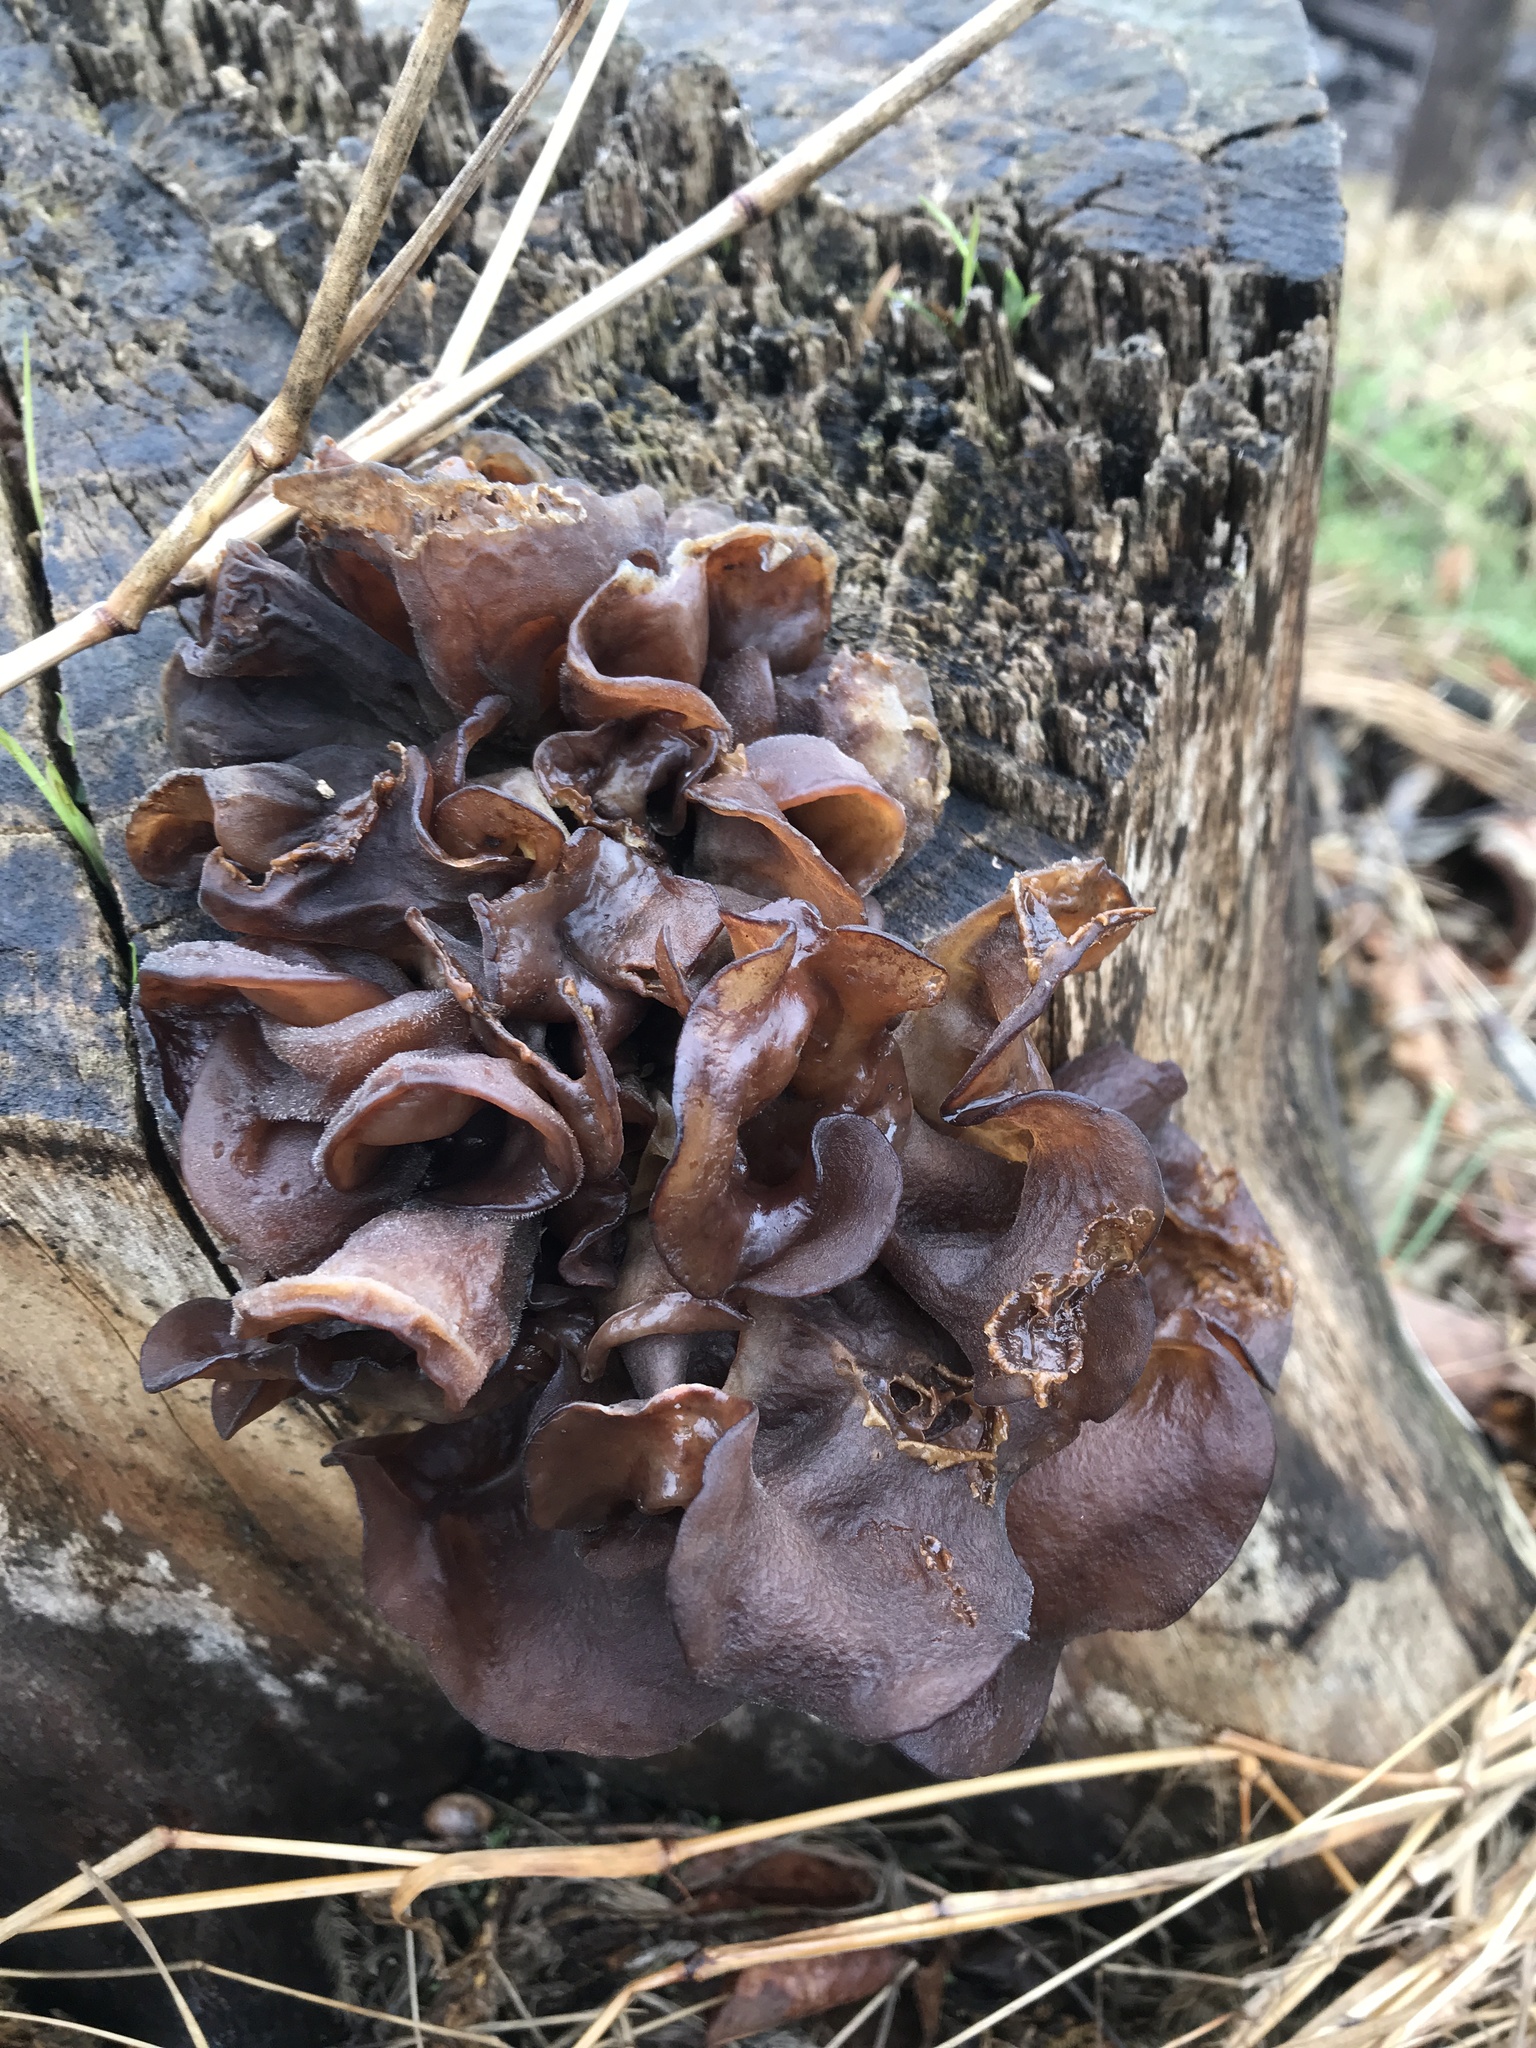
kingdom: Fungi
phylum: Basidiomycota
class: Tremellomycetes
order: Tremellales
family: Tremellaceae
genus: Phaeotremella
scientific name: Phaeotremella foliacea
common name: Leafy brain
